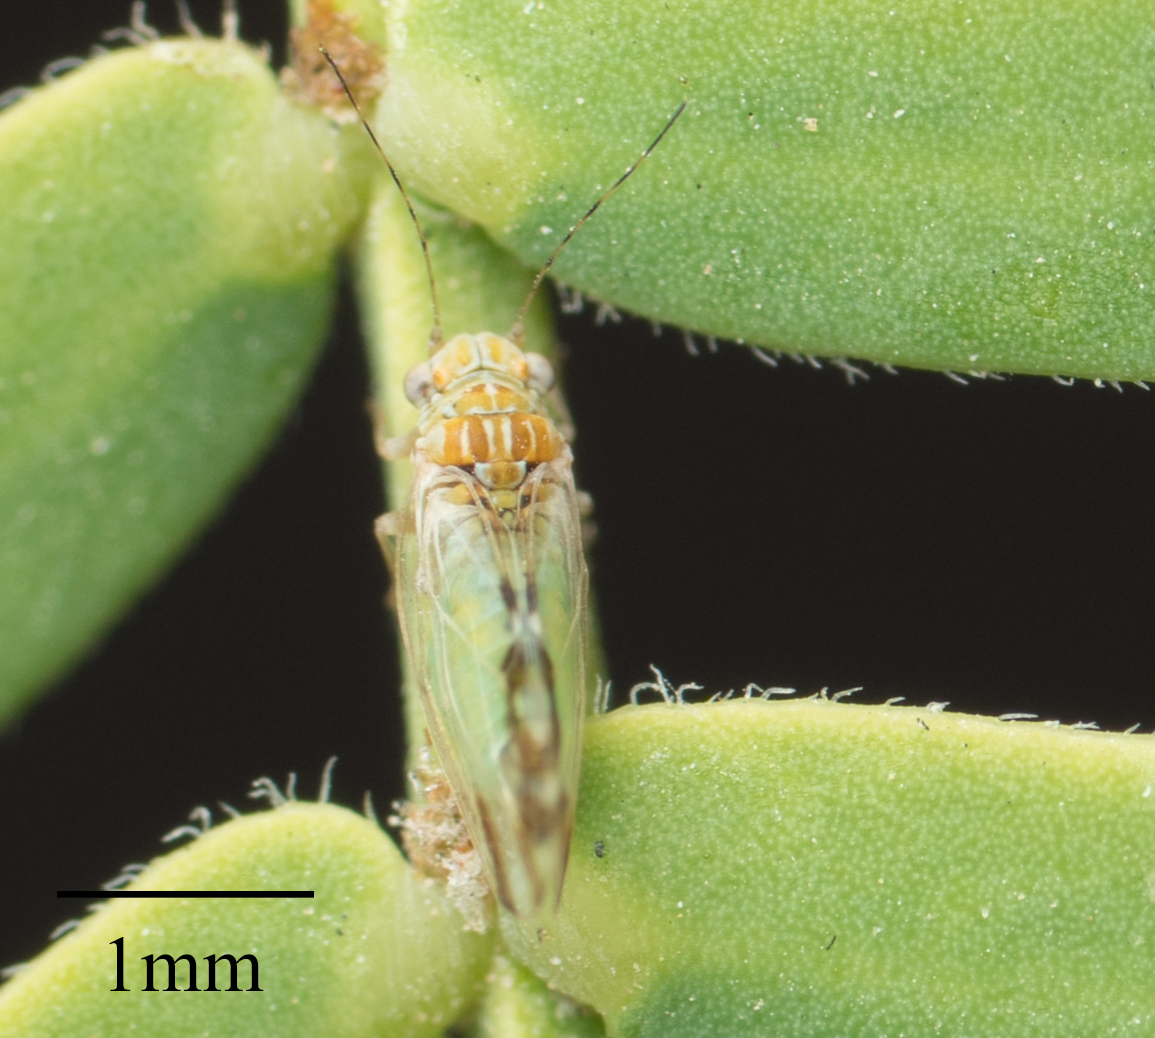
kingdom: Animalia
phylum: Arthropoda
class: Insecta
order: Hemiptera
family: Psyllidae
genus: Heteropsylla
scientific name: Heteropsylla texana
